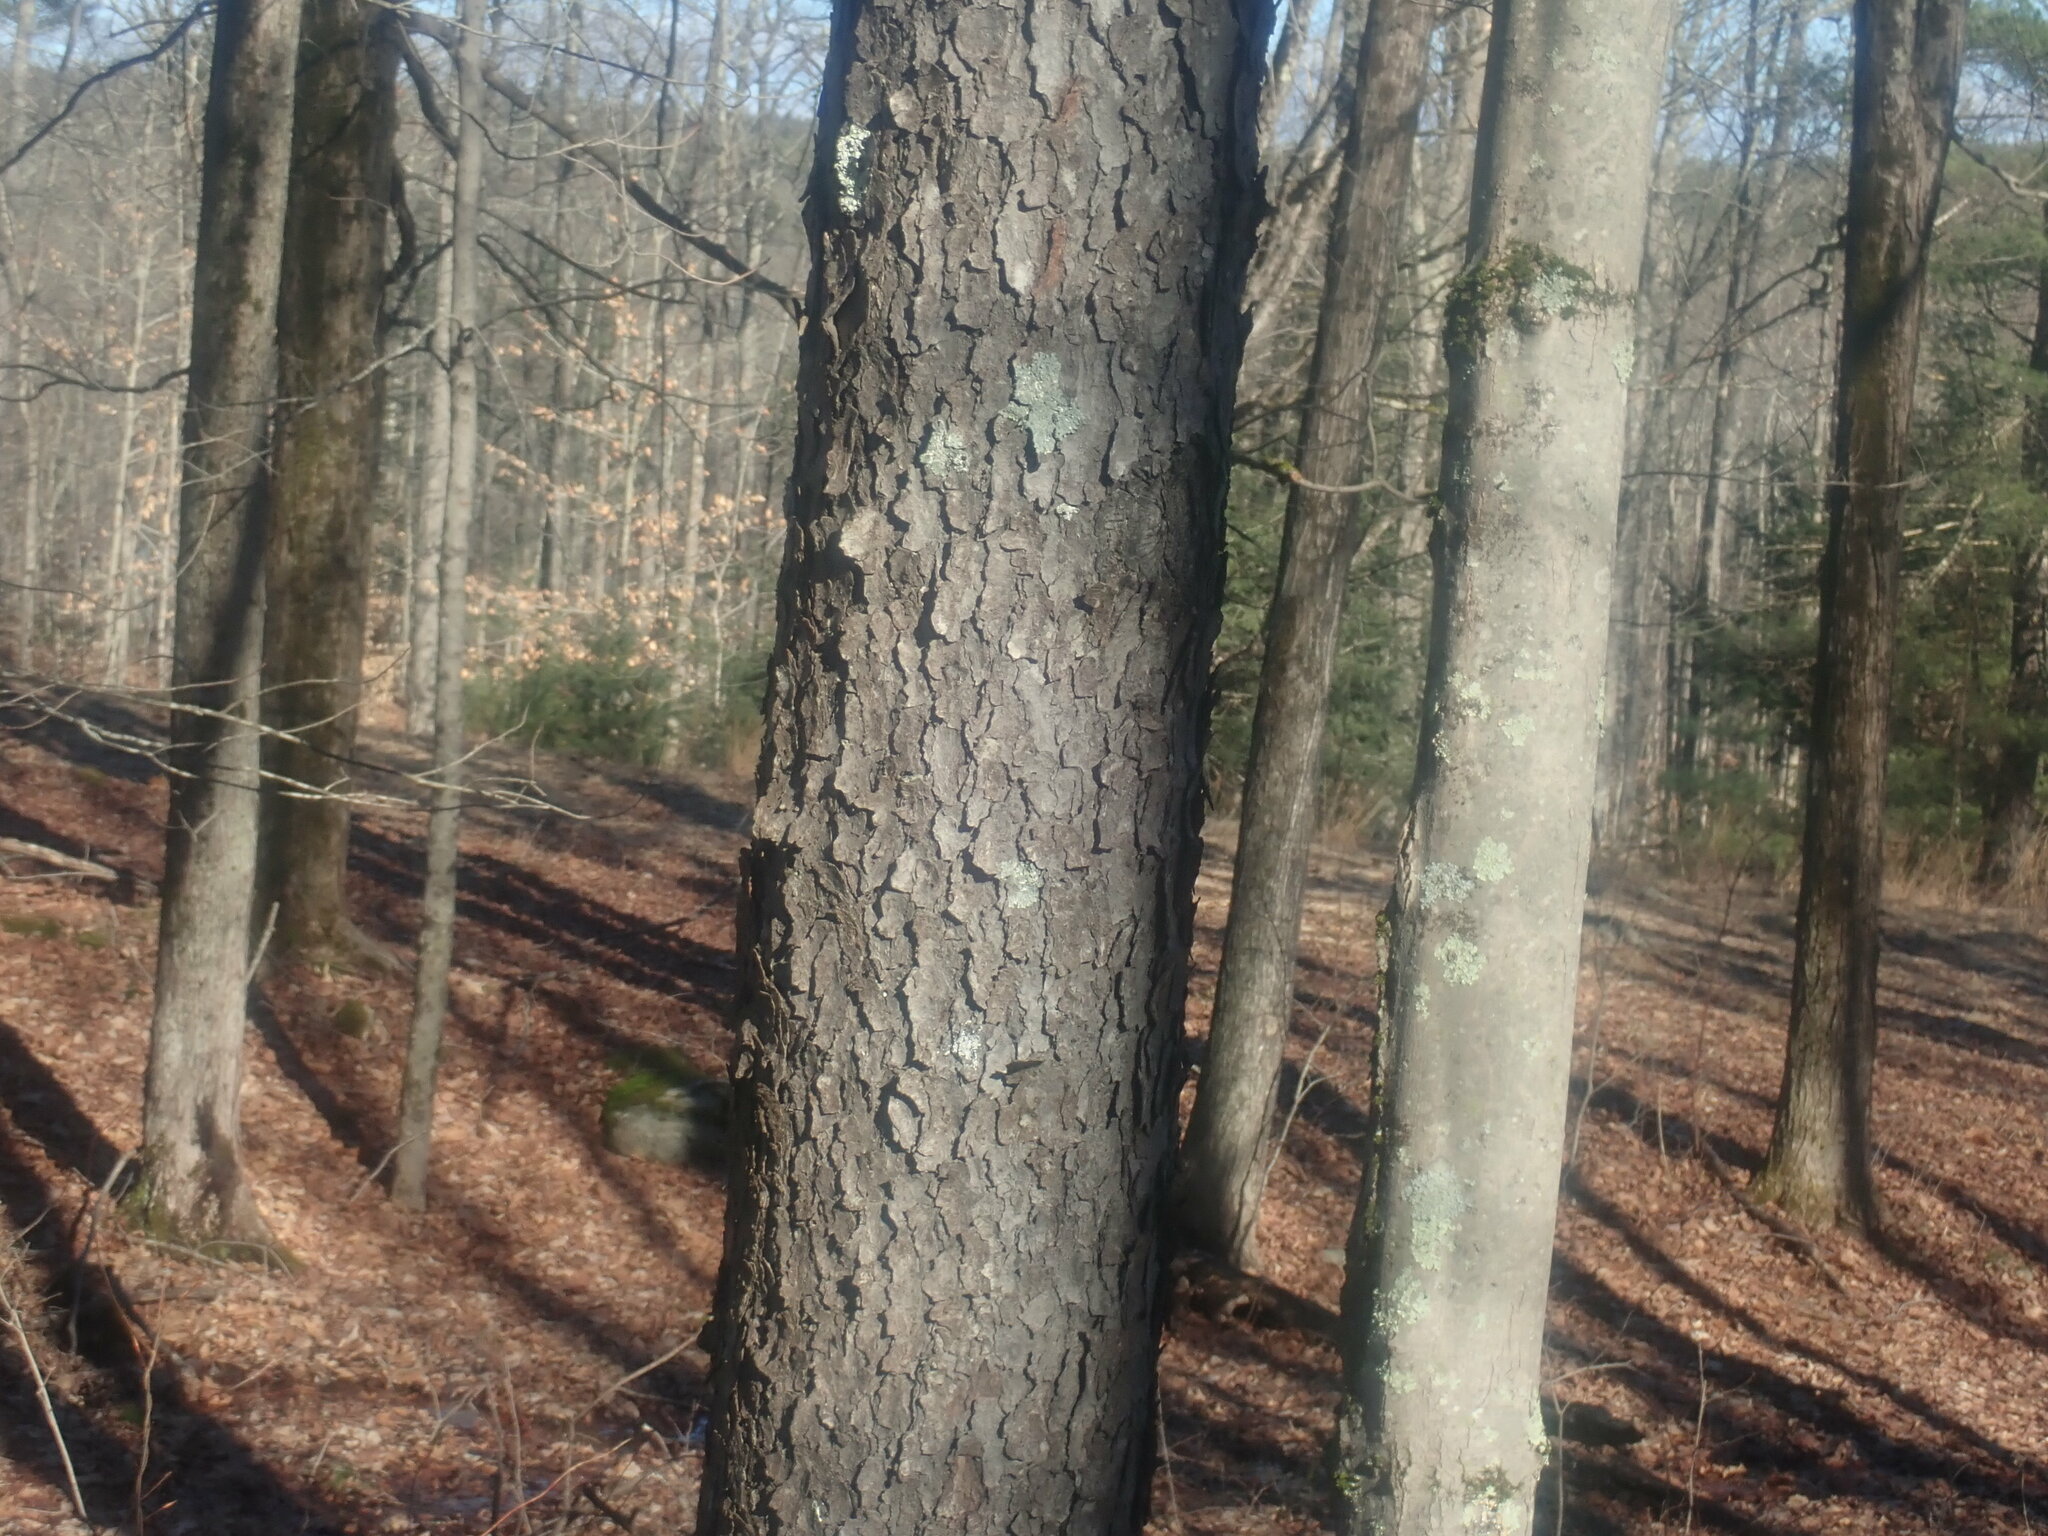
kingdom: Plantae
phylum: Tracheophyta
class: Magnoliopsida
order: Rosales
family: Rosaceae
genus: Prunus
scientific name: Prunus serotina
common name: Black cherry
